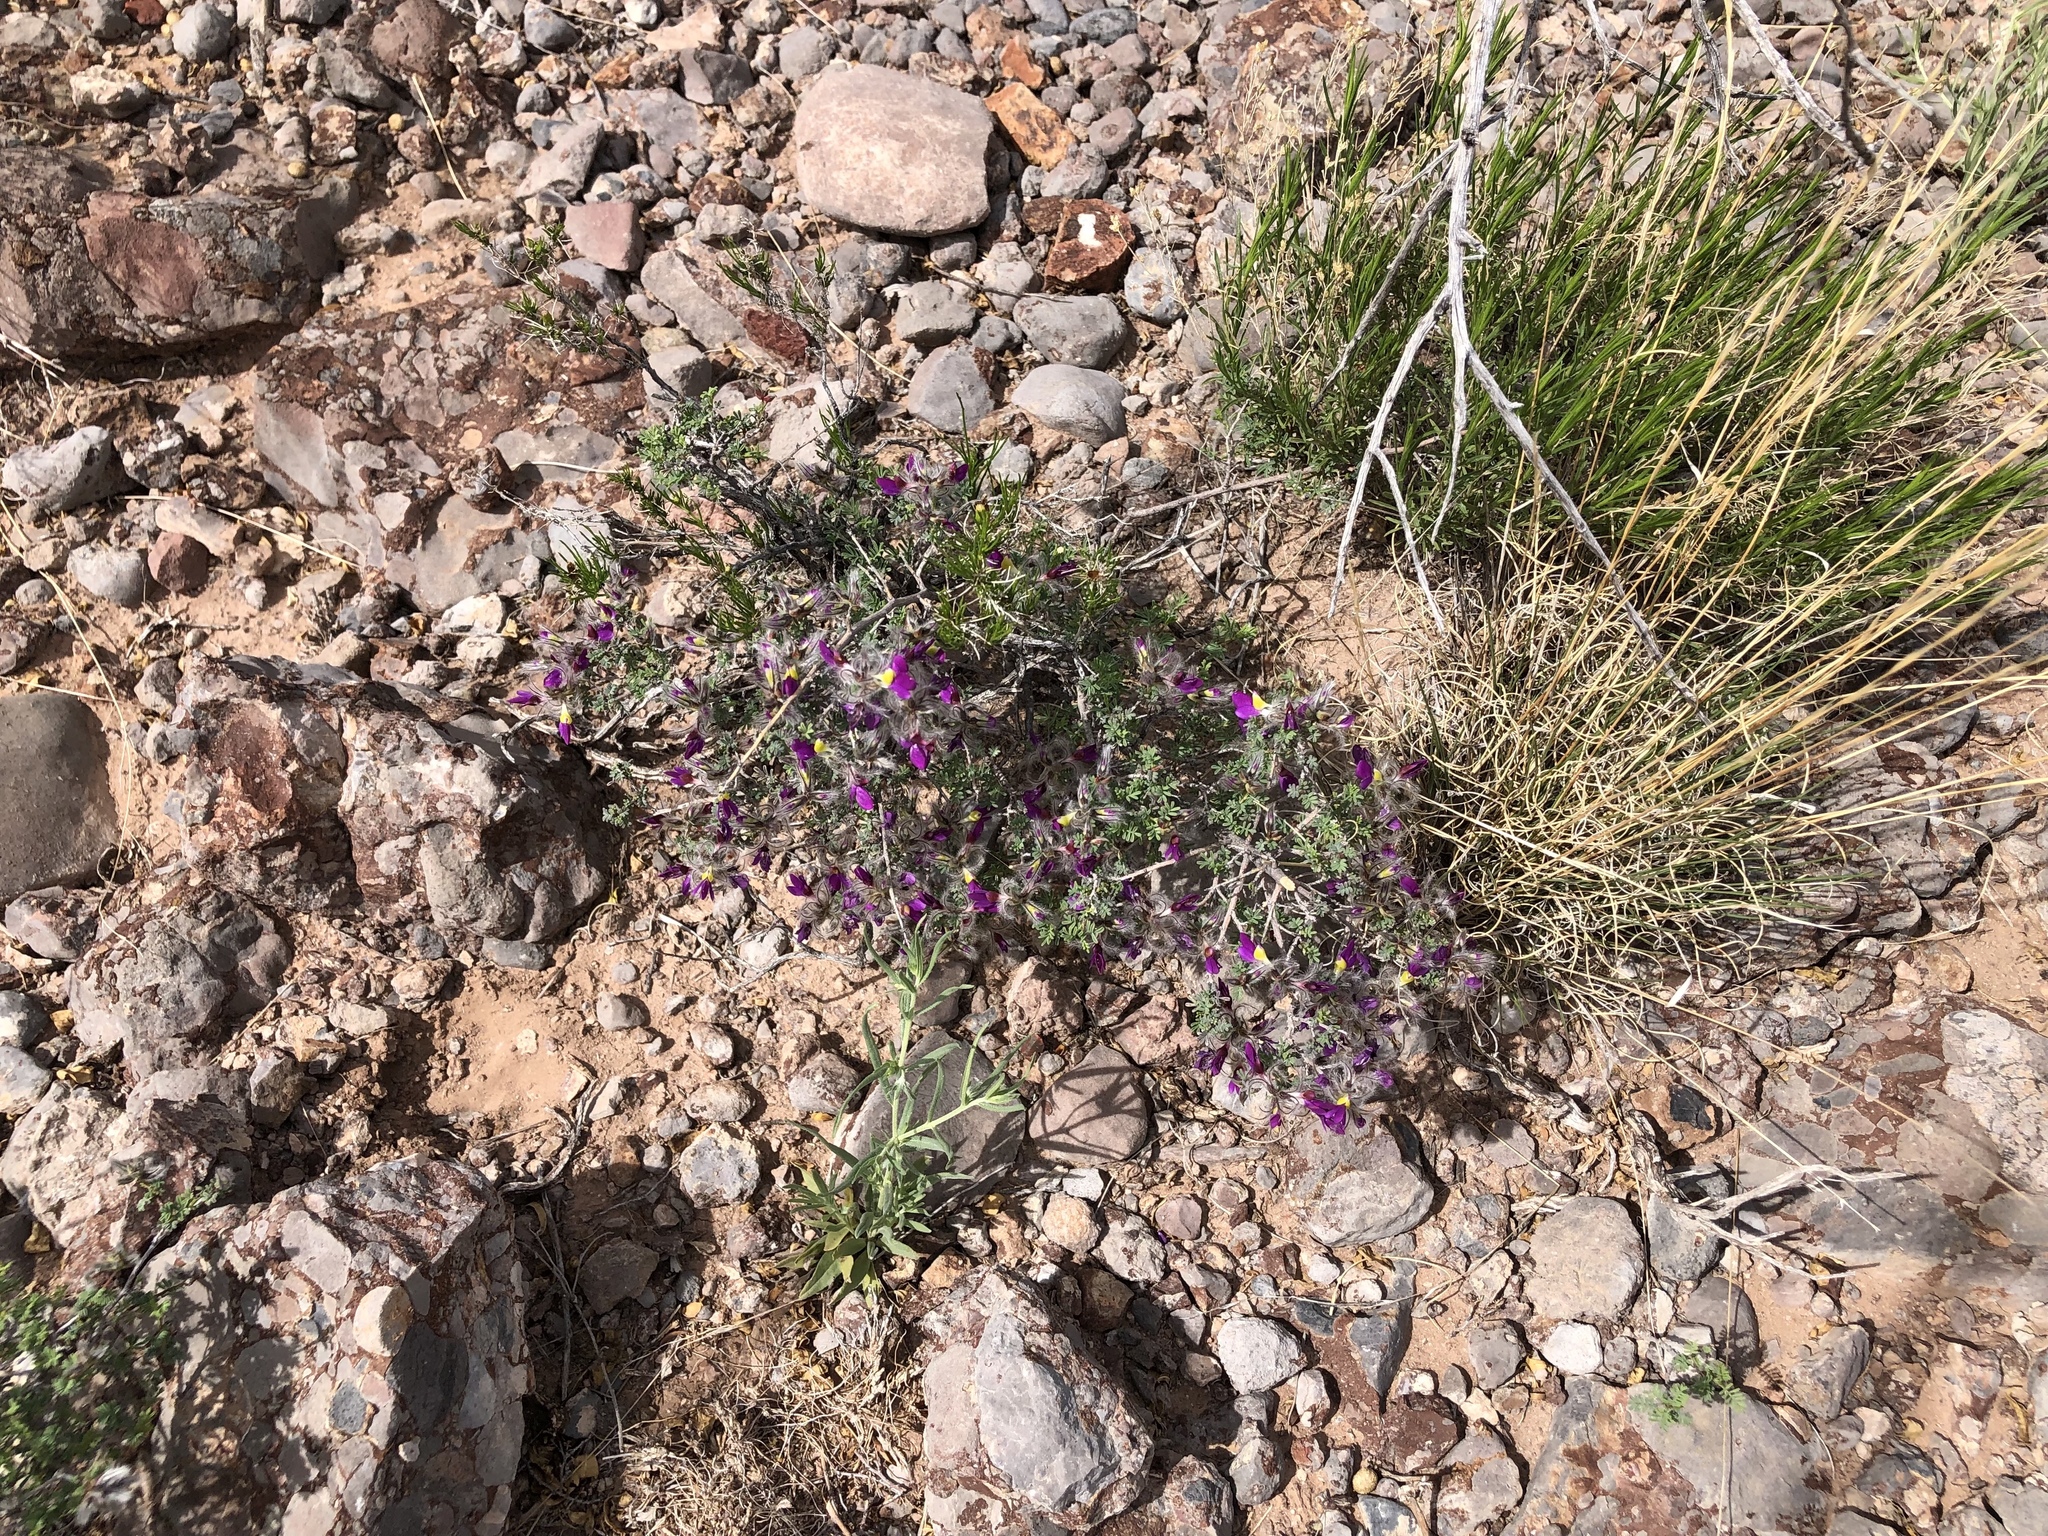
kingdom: Plantae
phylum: Tracheophyta
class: Magnoliopsida
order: Fabales
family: Fabaceae
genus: Dalea
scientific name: Dalea formosa
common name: Feather-plume dalea
